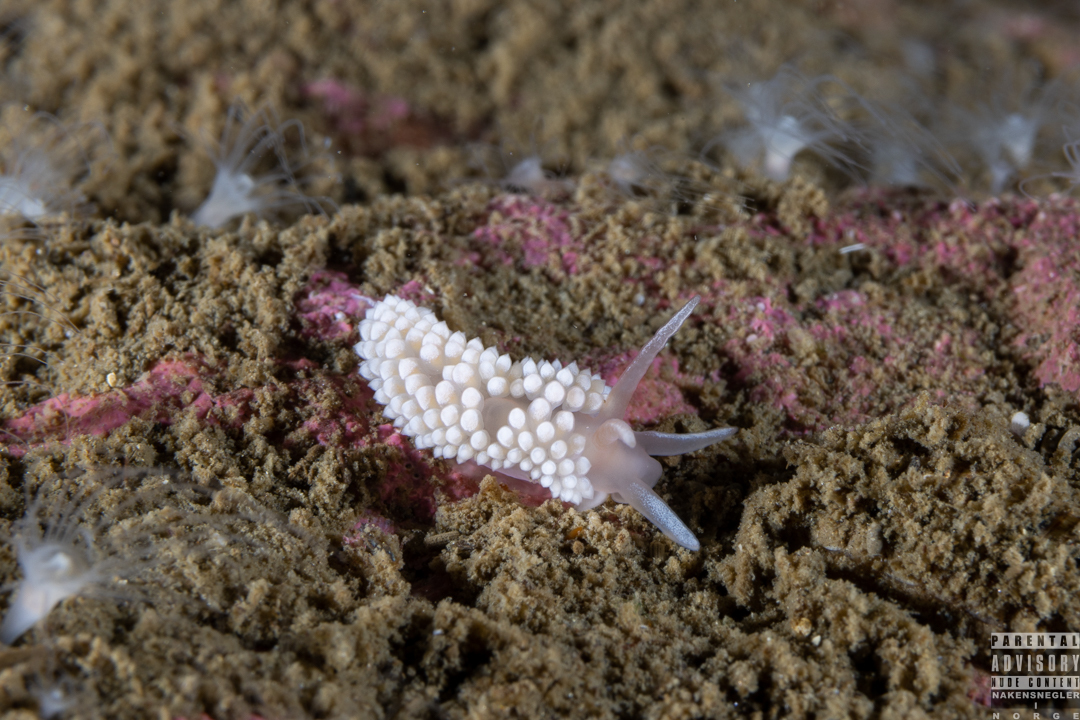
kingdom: Animalia
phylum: Mollusca
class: Gastropoda
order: Nudibranchia
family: Coryphellidae
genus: Coryphella
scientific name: Coryphella verrucosa
